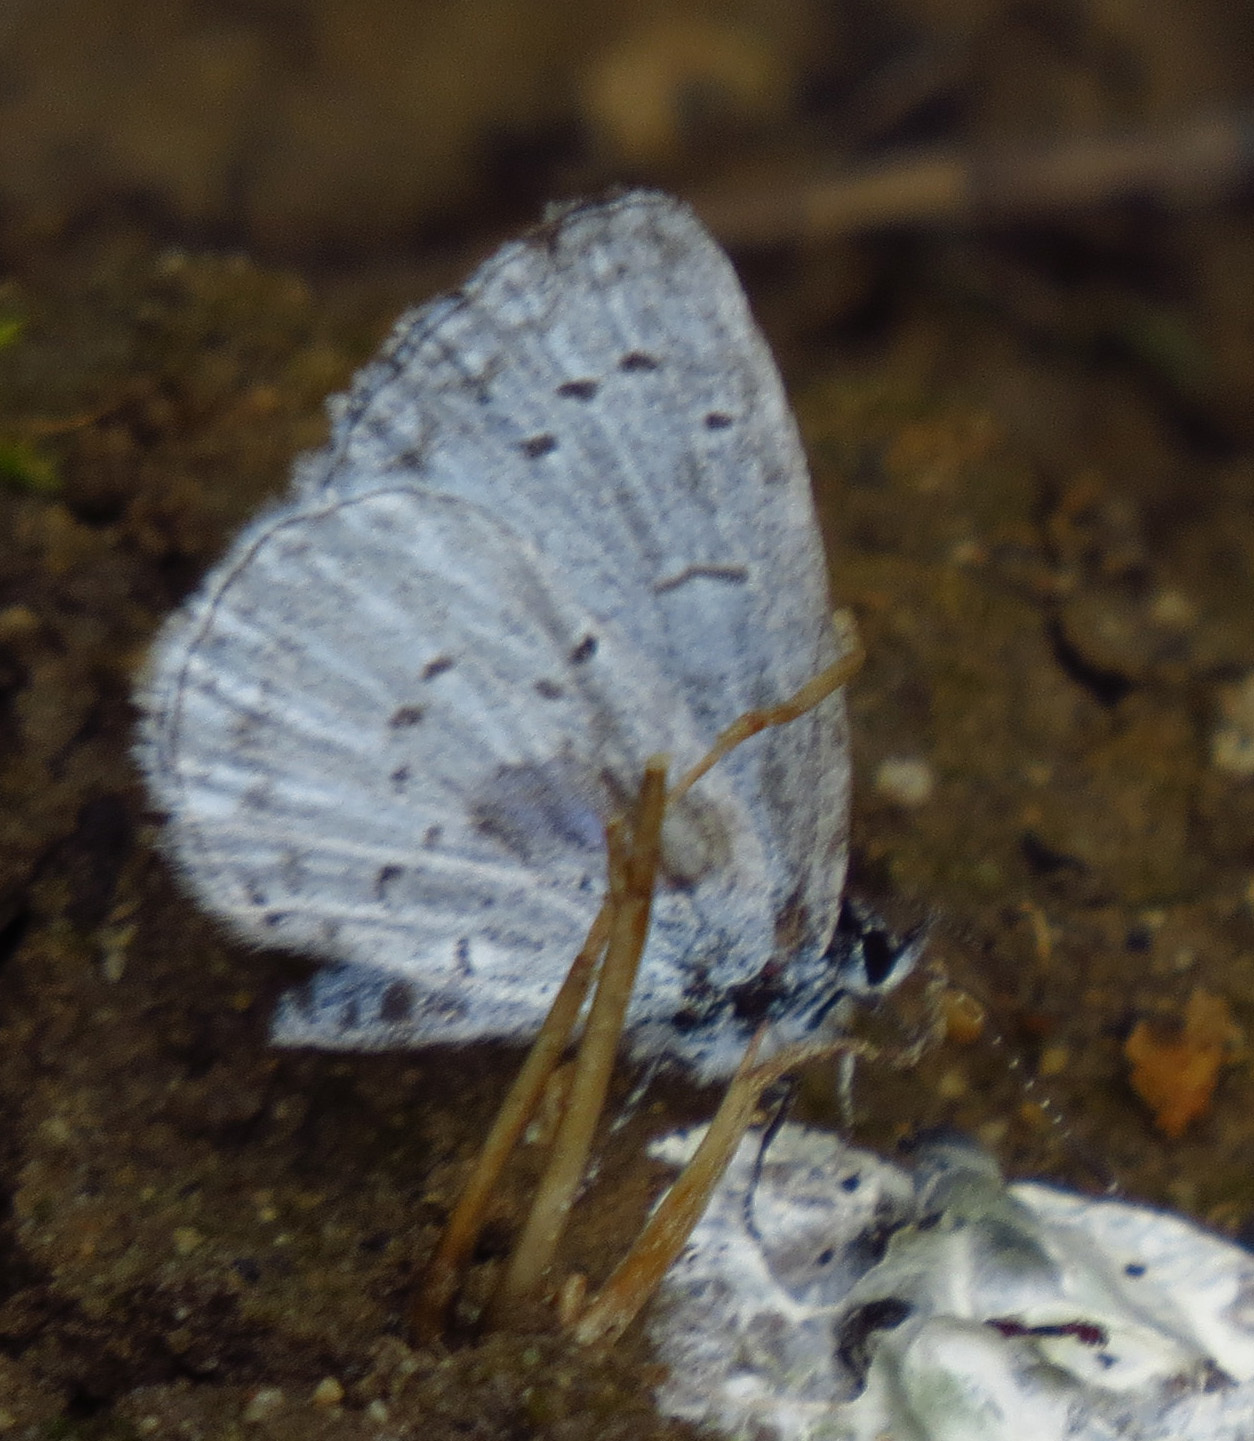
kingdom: Animalia
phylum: Arthropoda
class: Insecta
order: Lepidoptera
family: Lycaenidae
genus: Cyaniris
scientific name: Cyaniris neglecta
